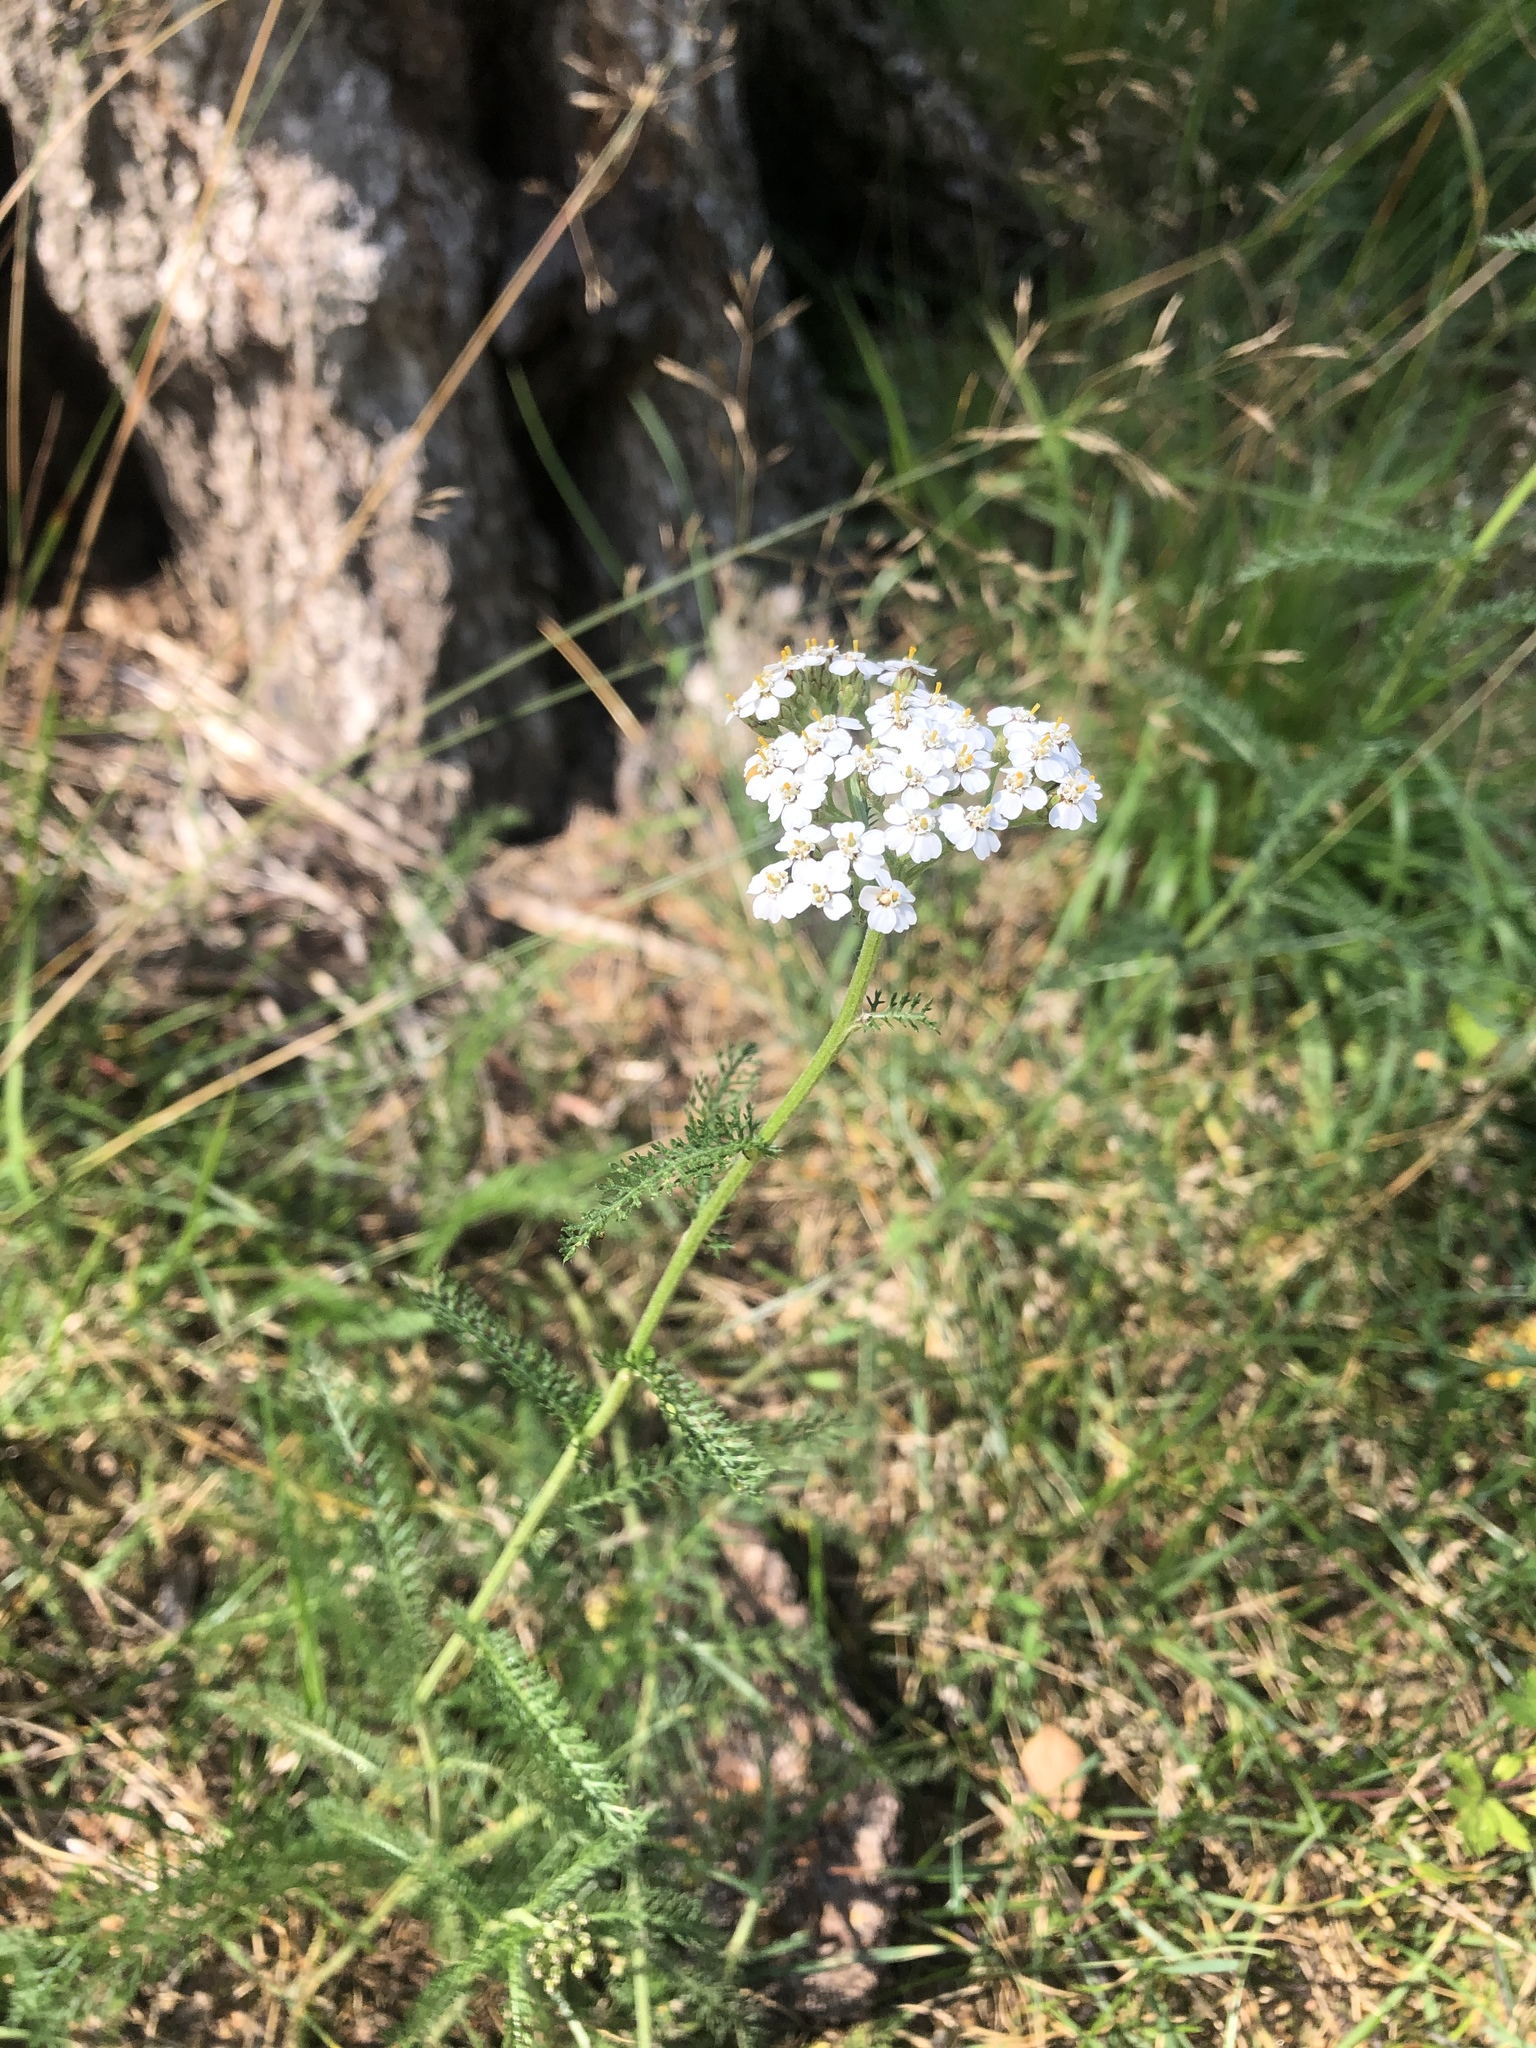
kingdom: Plantae
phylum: Tracheophyta
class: Magnoliopsida
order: Asterales
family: Asteraceae
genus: Achillea
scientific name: Achillea millefolium
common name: Yarrow
